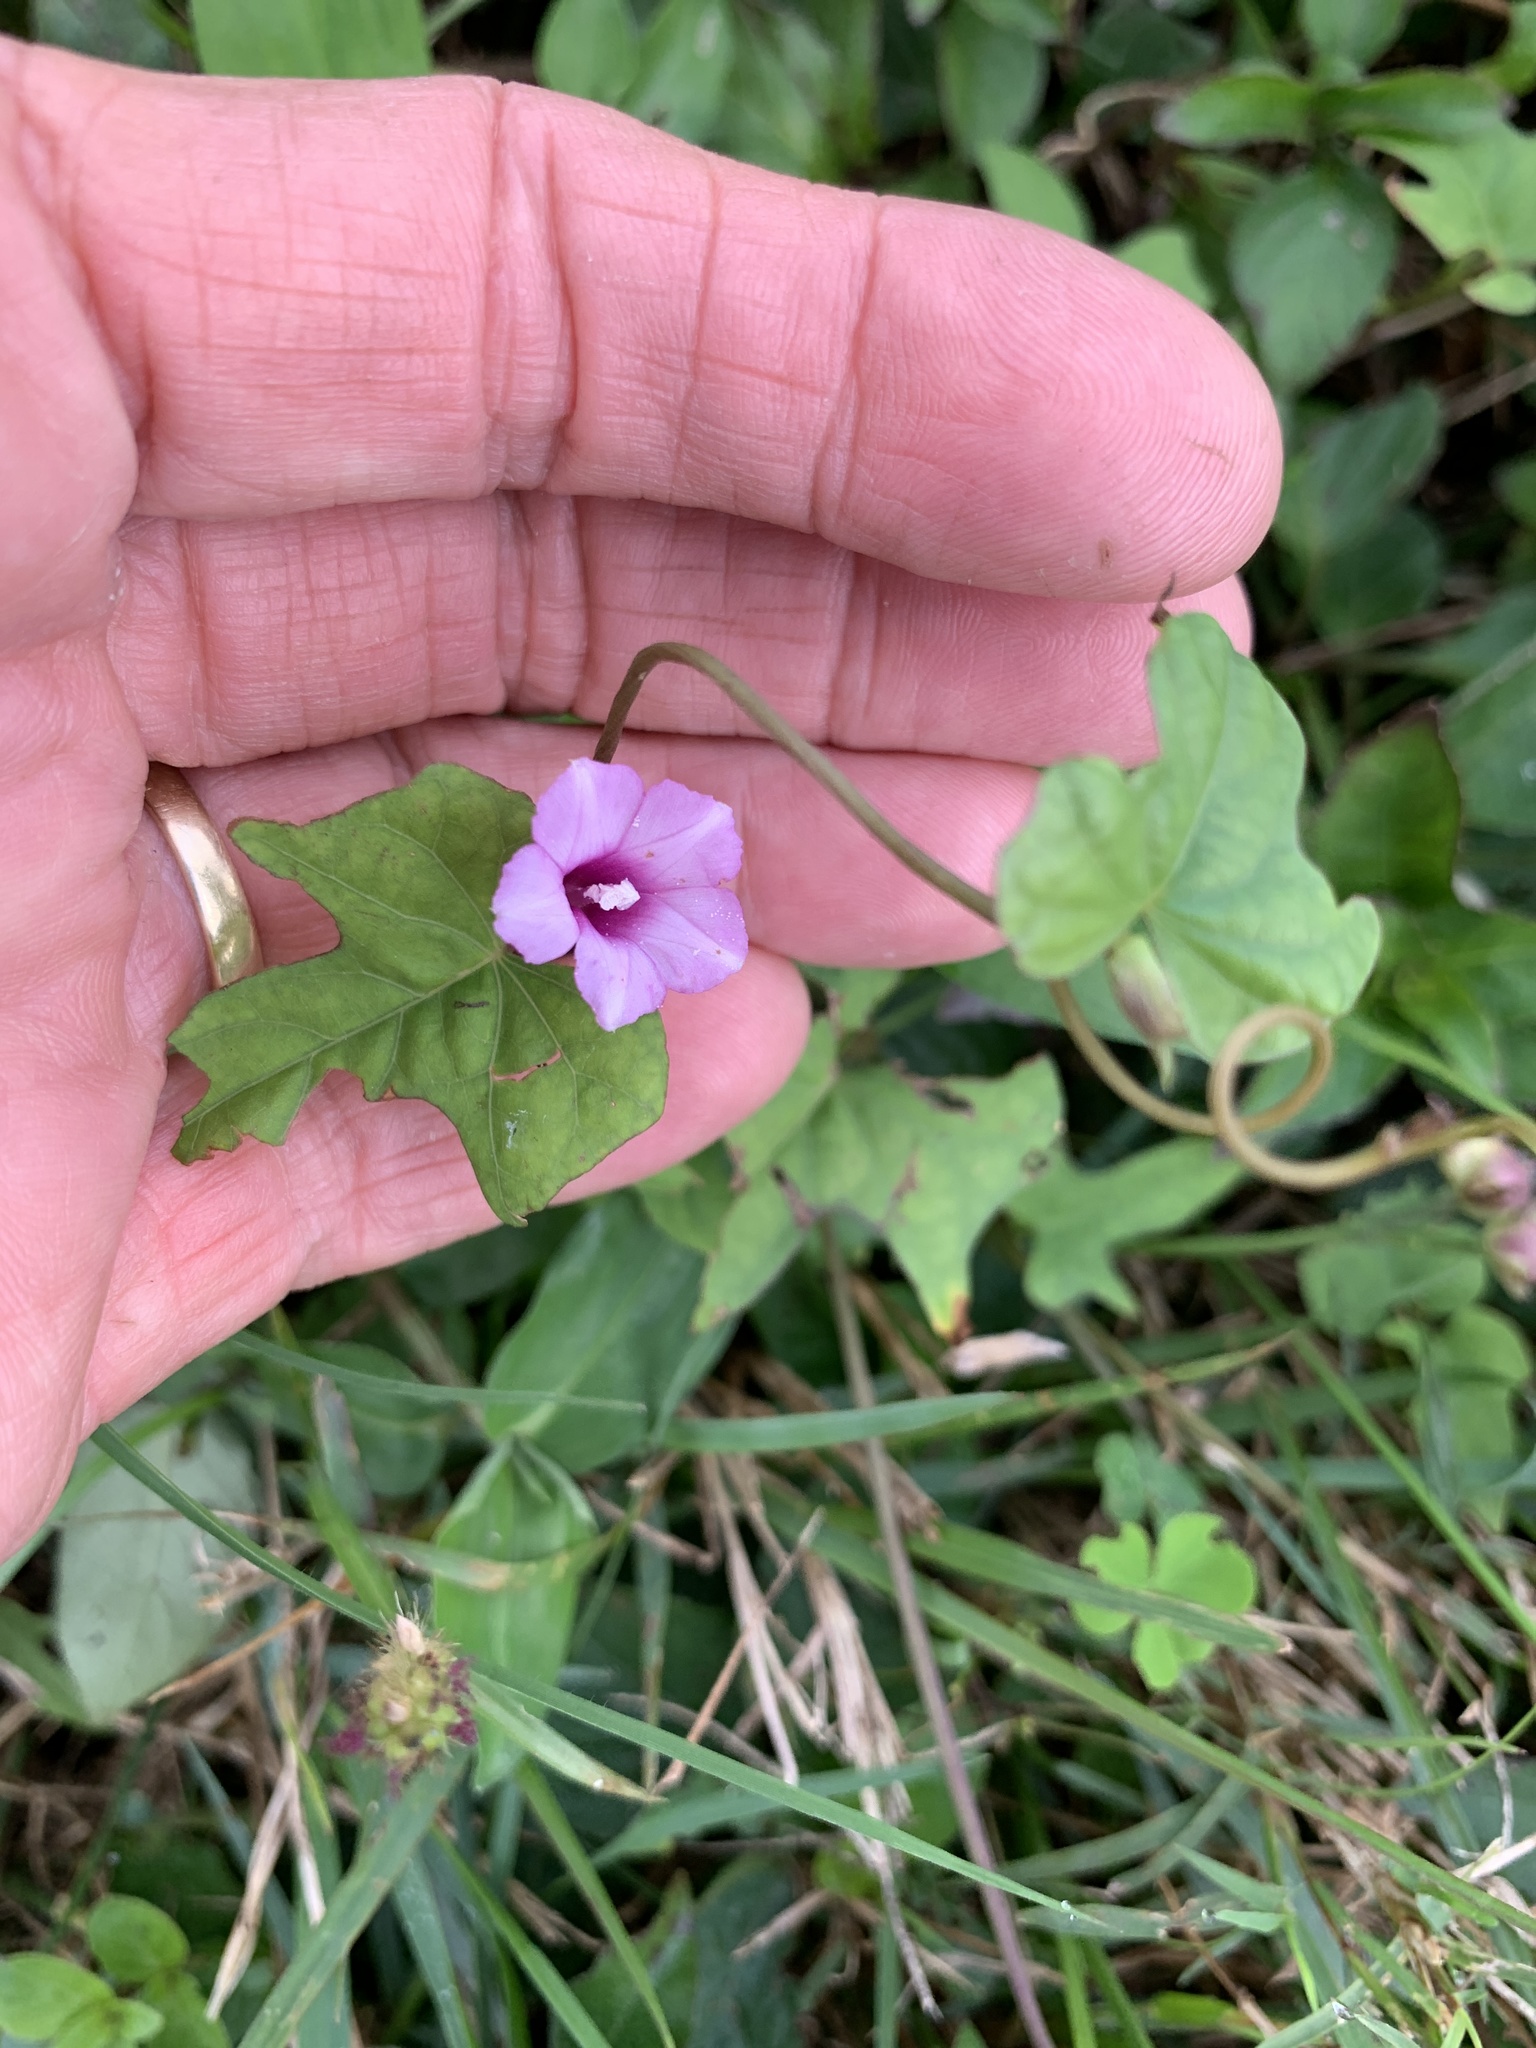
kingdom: Plantae
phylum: Tracheophyta
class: Magnoliopsida
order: Solanales
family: Convolvulaceae
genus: Ipomoea
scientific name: Ipomoea triloba
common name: Little-bell
